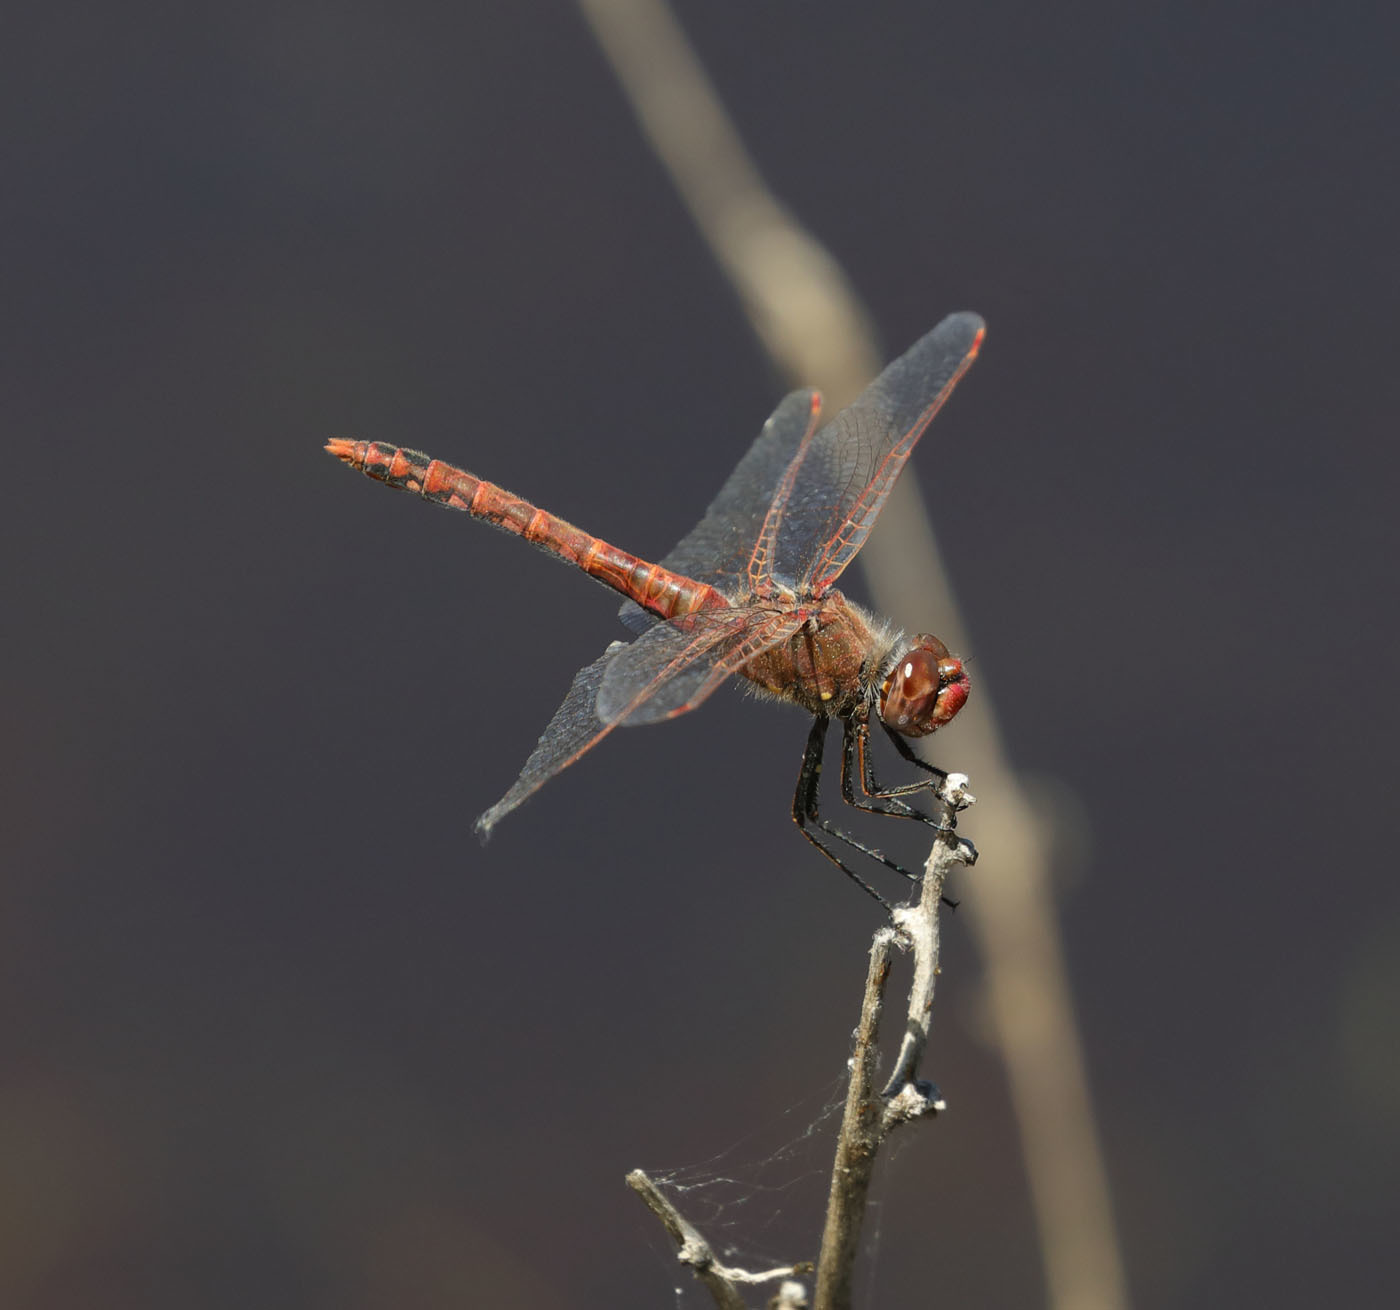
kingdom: Animalia
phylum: Arthropoda
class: Insecta
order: Odonata
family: Libellulidae
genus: Sympetrum
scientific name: Sympetrum corruptum
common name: Variegated meadowhawk
